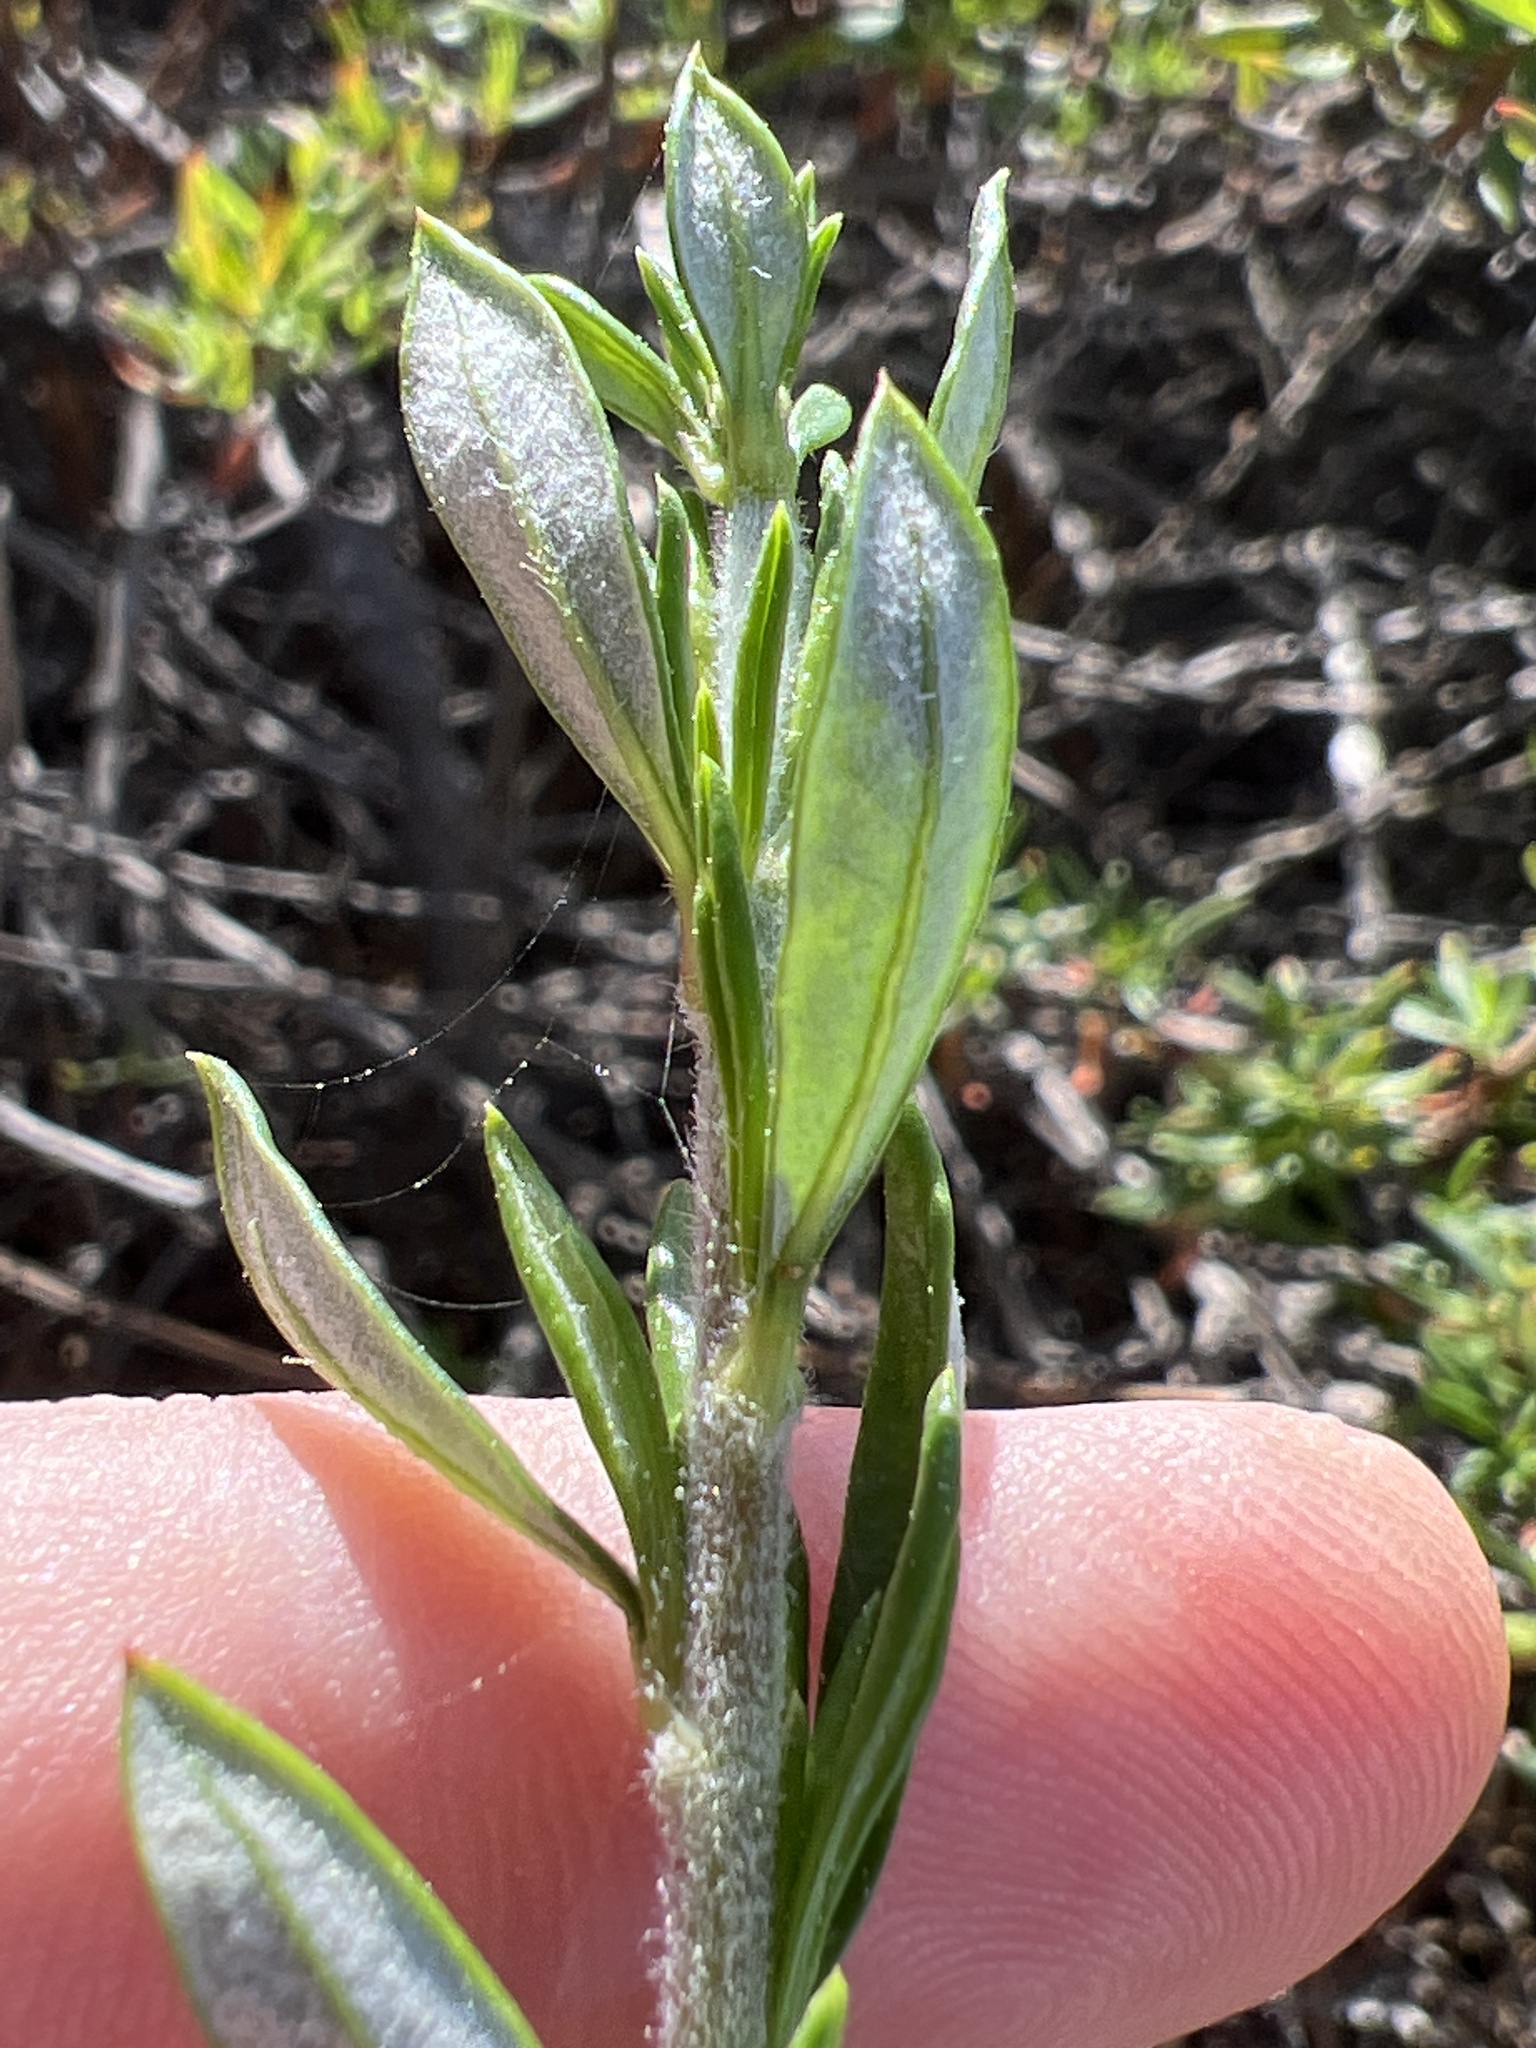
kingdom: Plantae
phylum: Tracheophyta
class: Magnoliopsida
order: Caryophyllales
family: Polygonaceae
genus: Eriogonum
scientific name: Eriogonum fasciculatum
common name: California wild buckwheat
